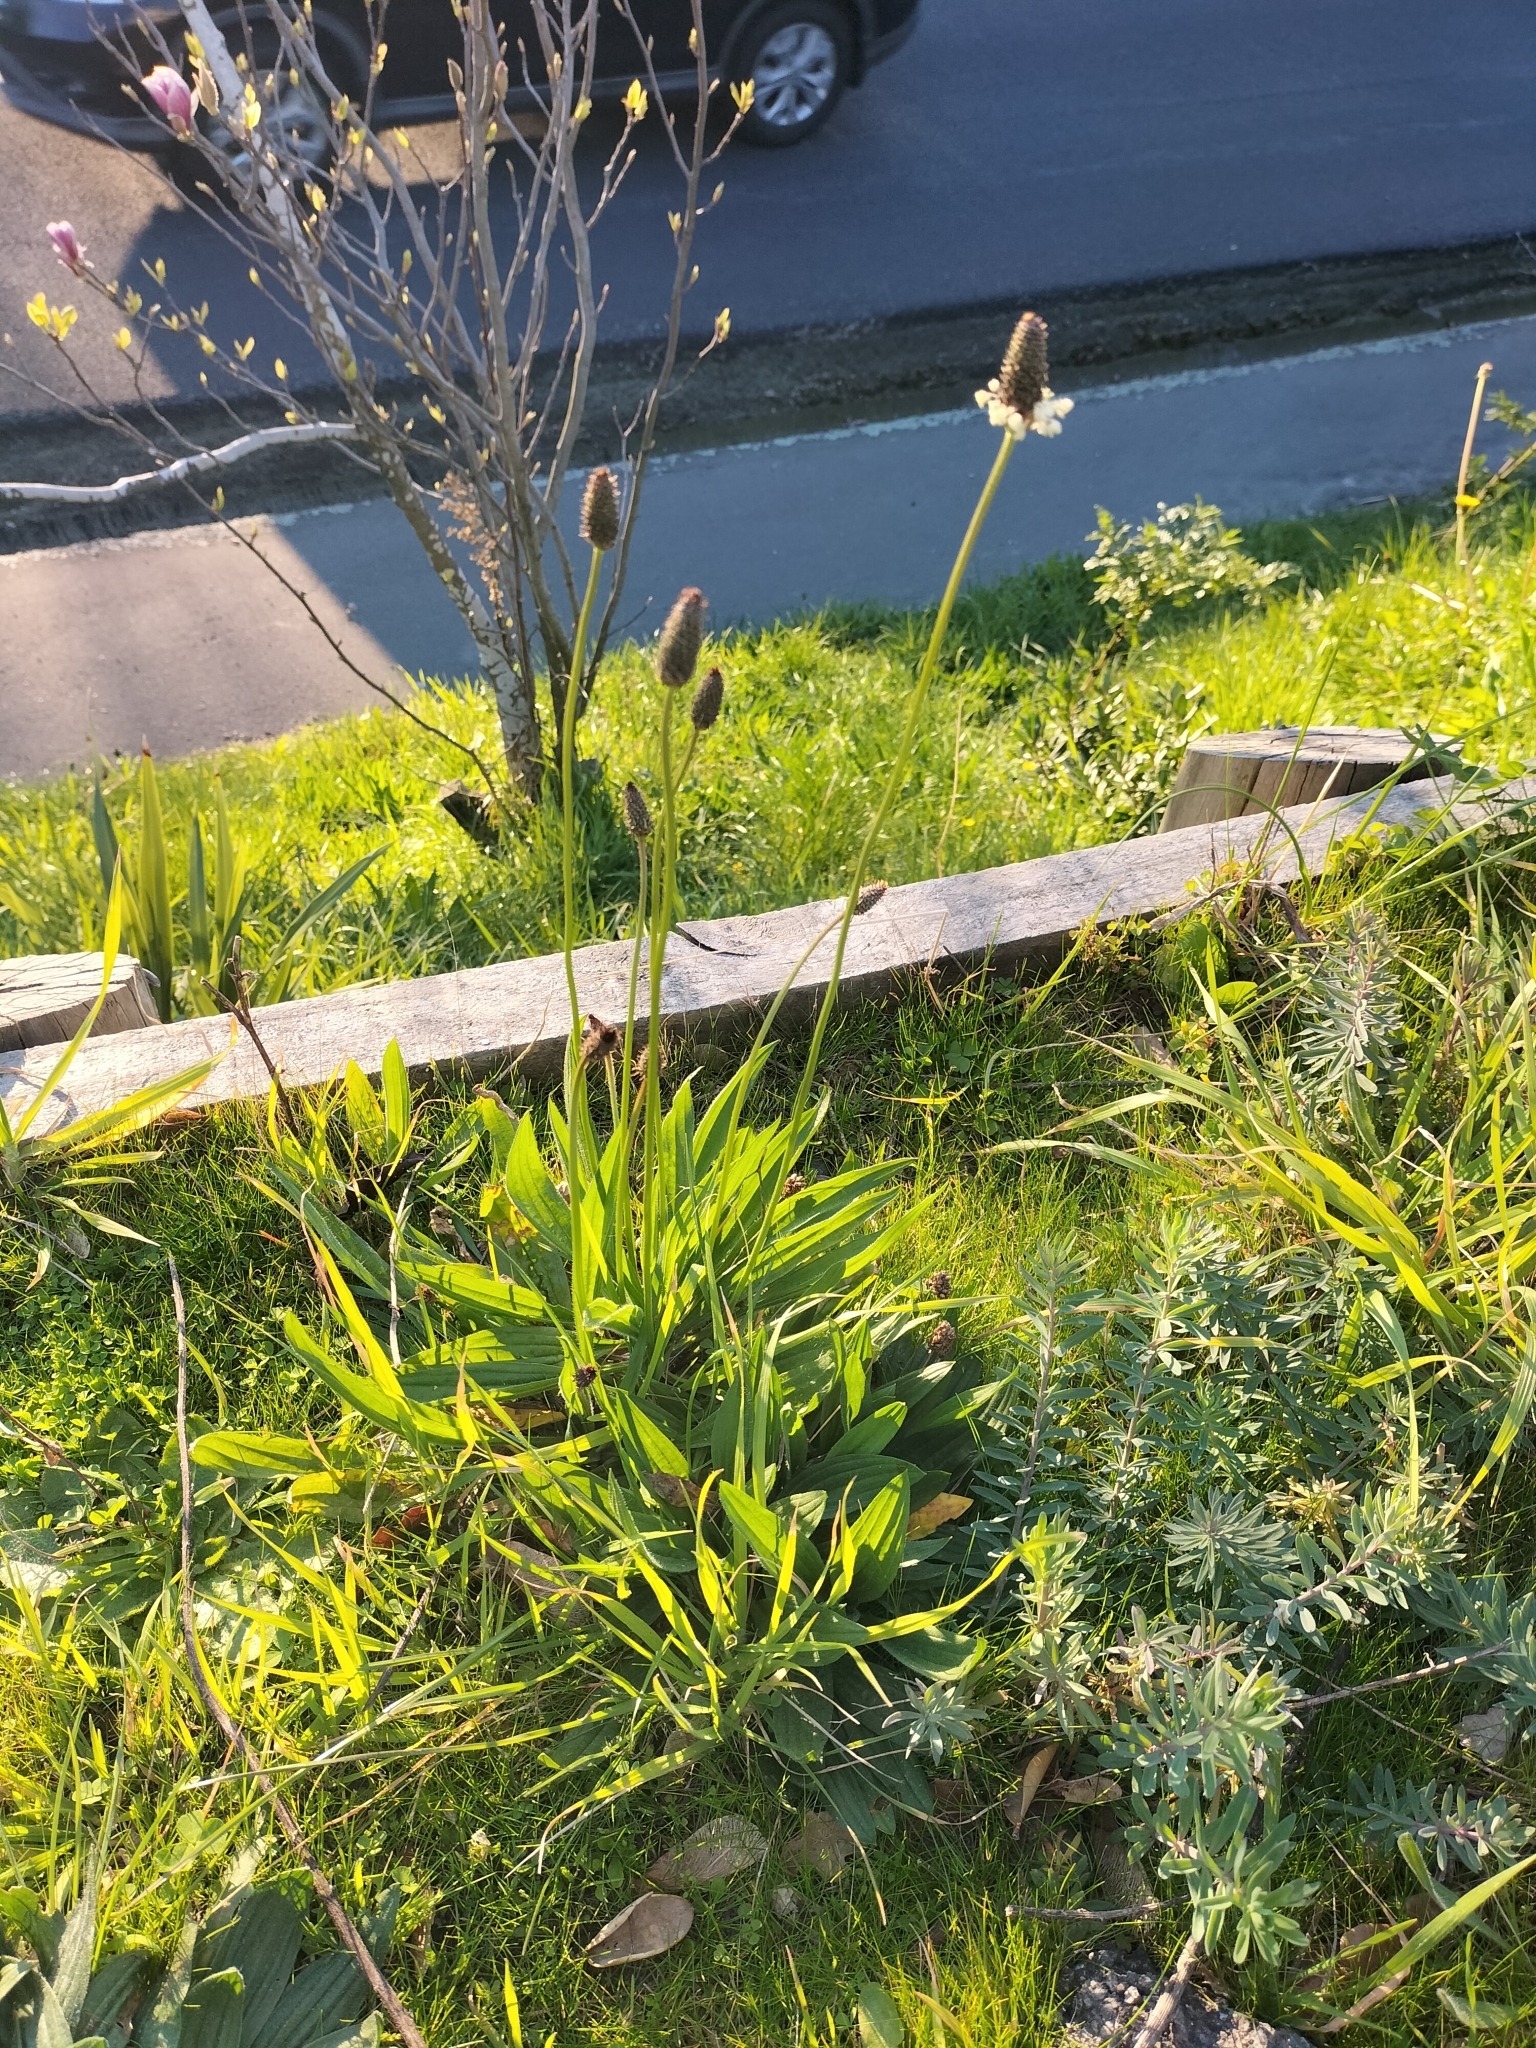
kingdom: Plantae
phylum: Tracheophyta
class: Magnoliopsida
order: Lamiales
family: Plantaginaceae
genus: Plantago
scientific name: Plantago lanceolata
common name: Ribwort plantain
